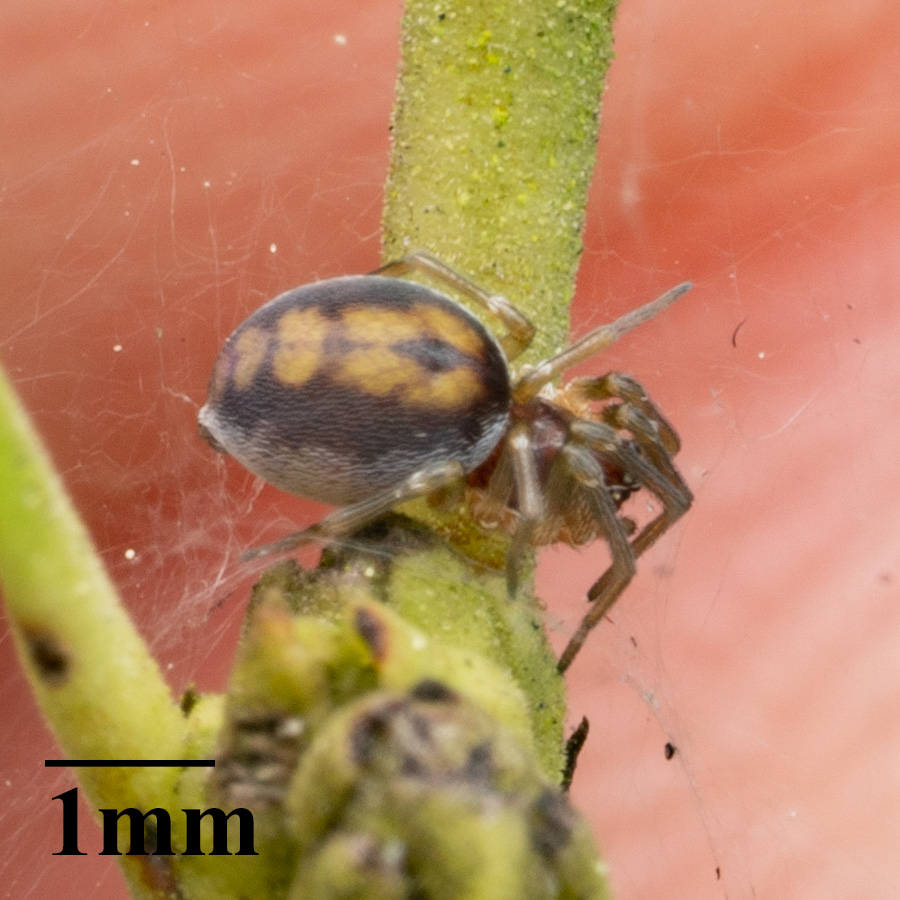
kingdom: Animalia
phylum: Arthropoda
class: Arachnida
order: Araneae
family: Dictynidae
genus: Emblyna
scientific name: Emblyna florens
